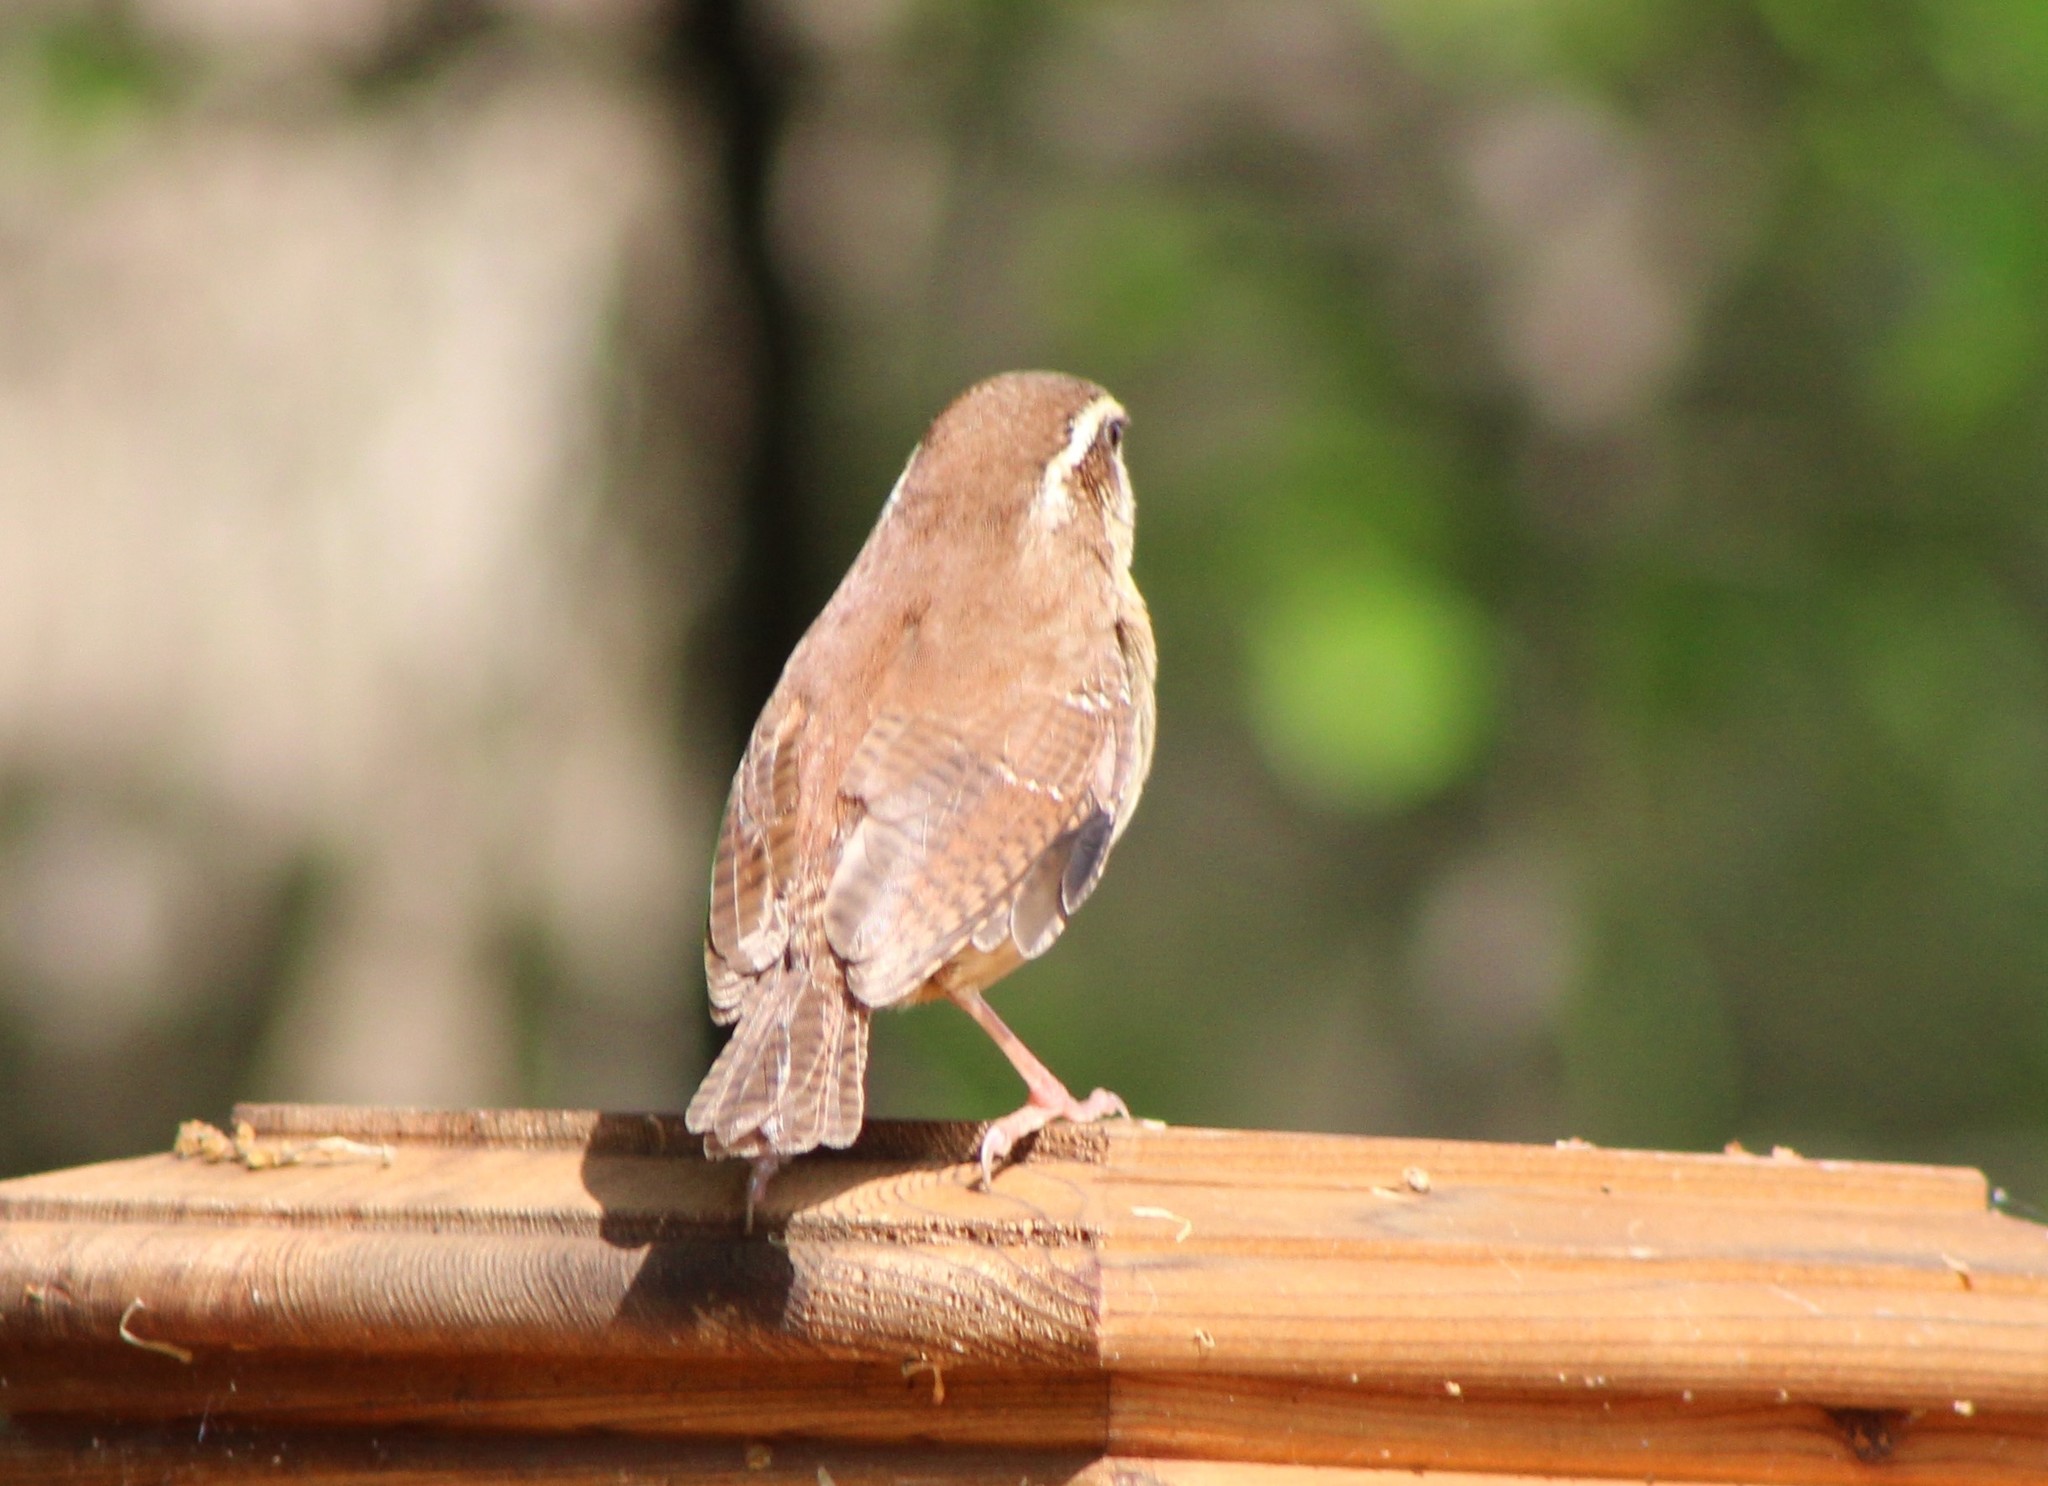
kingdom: Animalia
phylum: Chordata
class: Aves
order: Passeriformes
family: Troglodytidae
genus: Thryothorus
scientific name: Thryothorus ludovicianus
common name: Carolina wren
